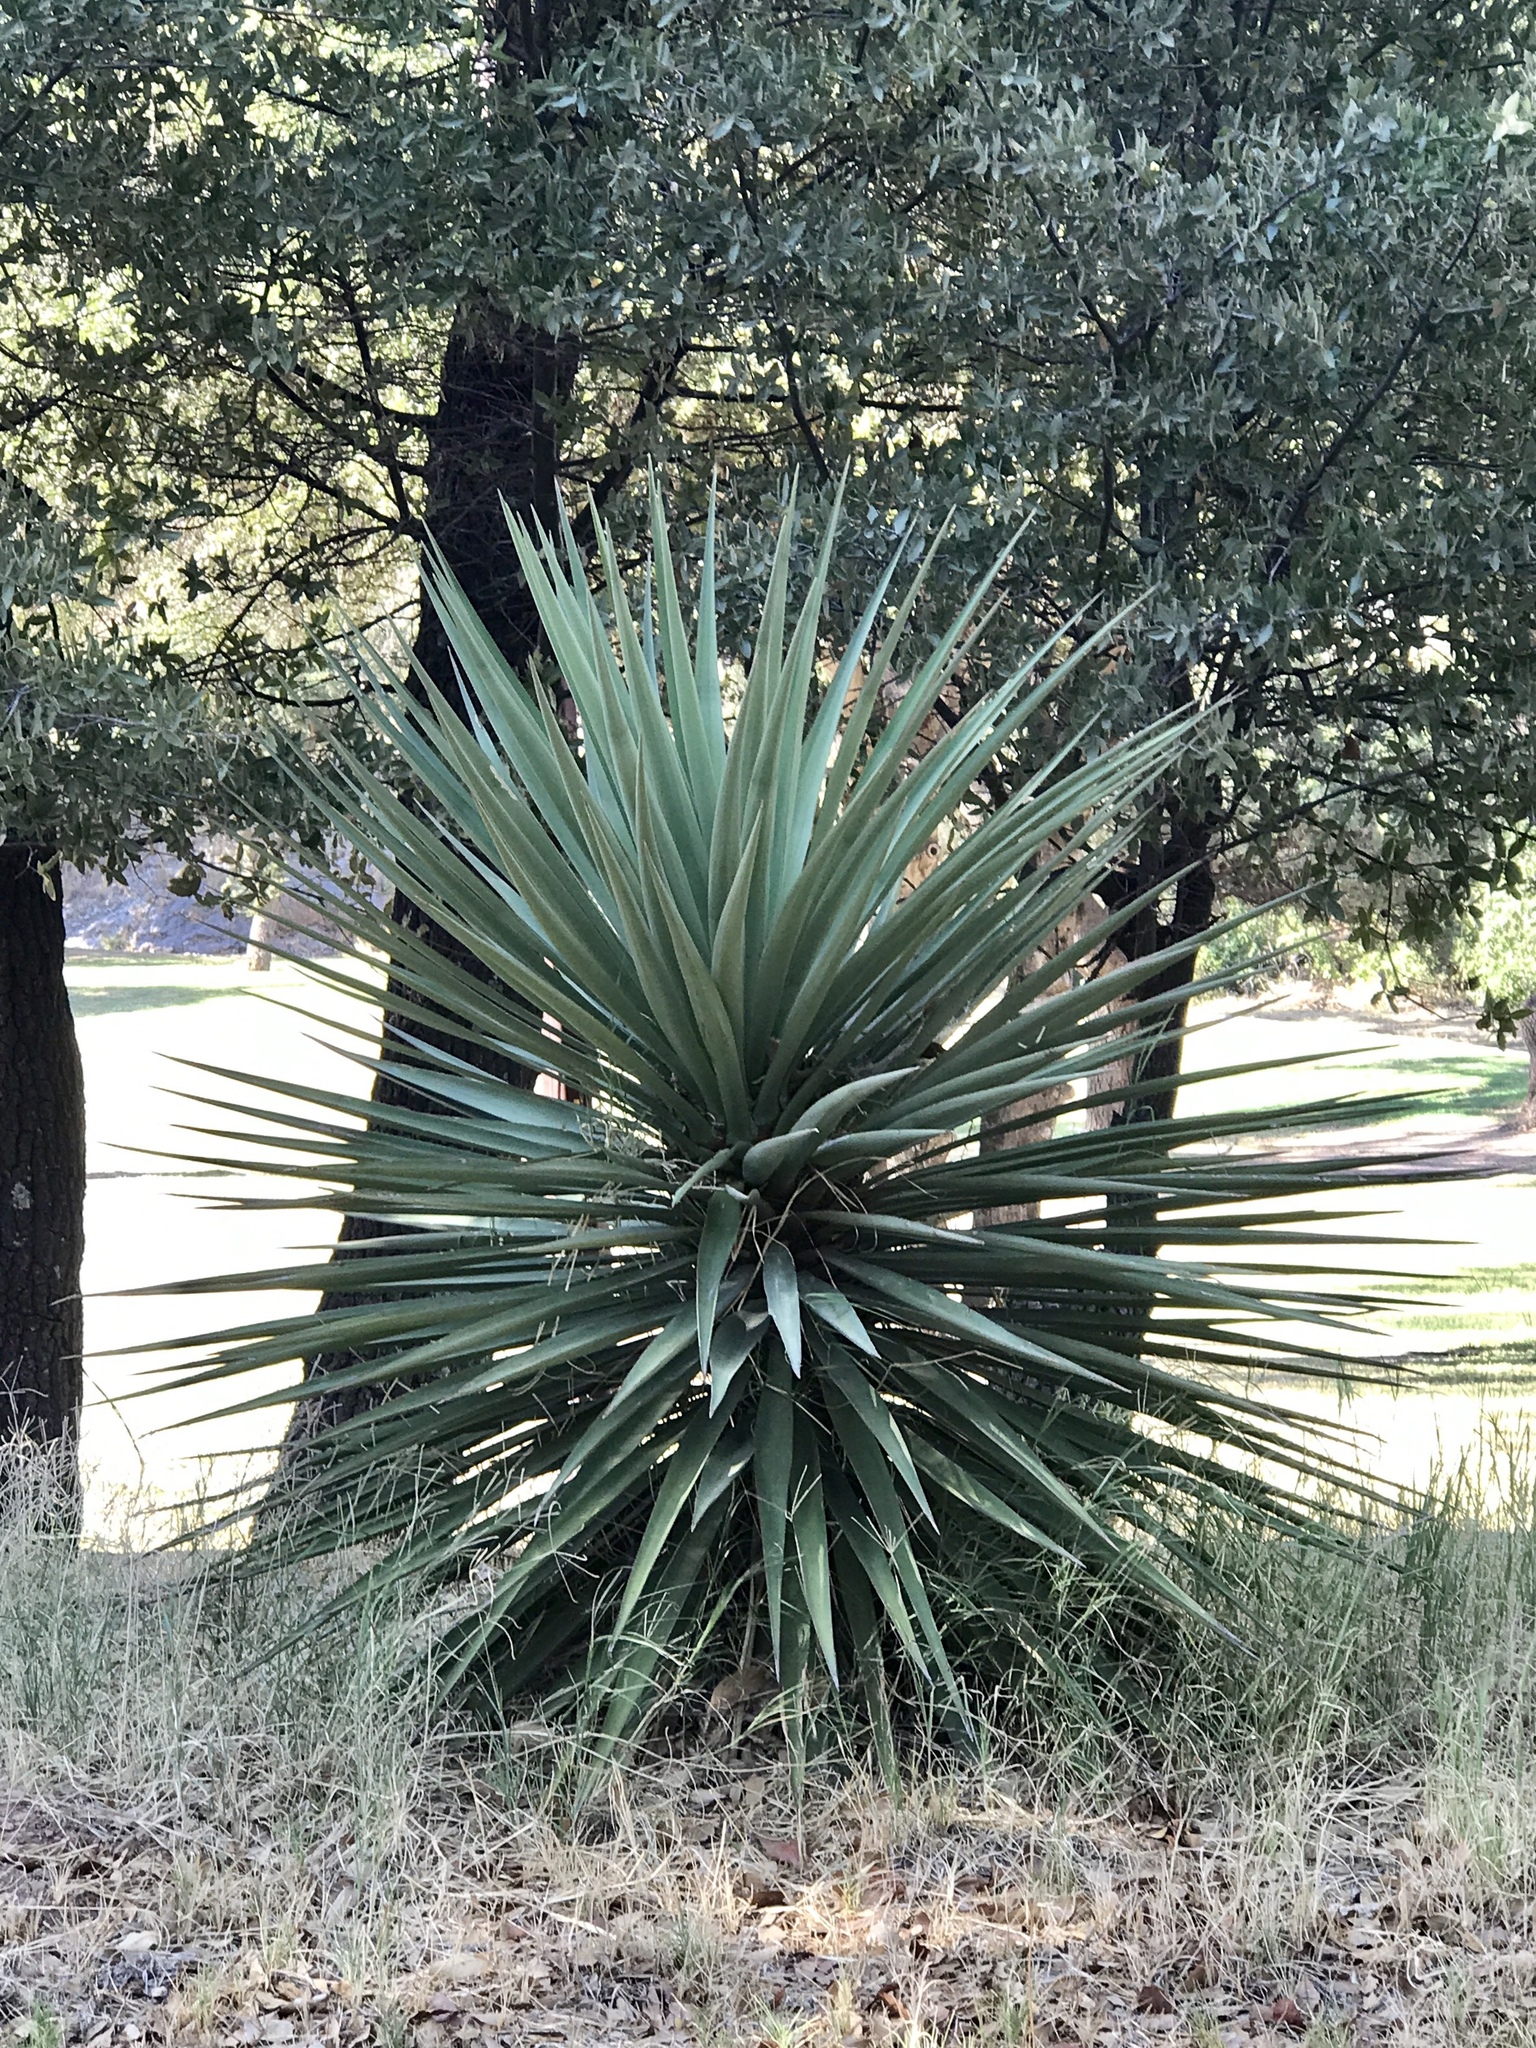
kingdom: Plantae
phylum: Tracheophyta
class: Liliopsida
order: Asparagales
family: Asparagaceae
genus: Yucca
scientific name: Yucca madrensis
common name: Hoary yucca
